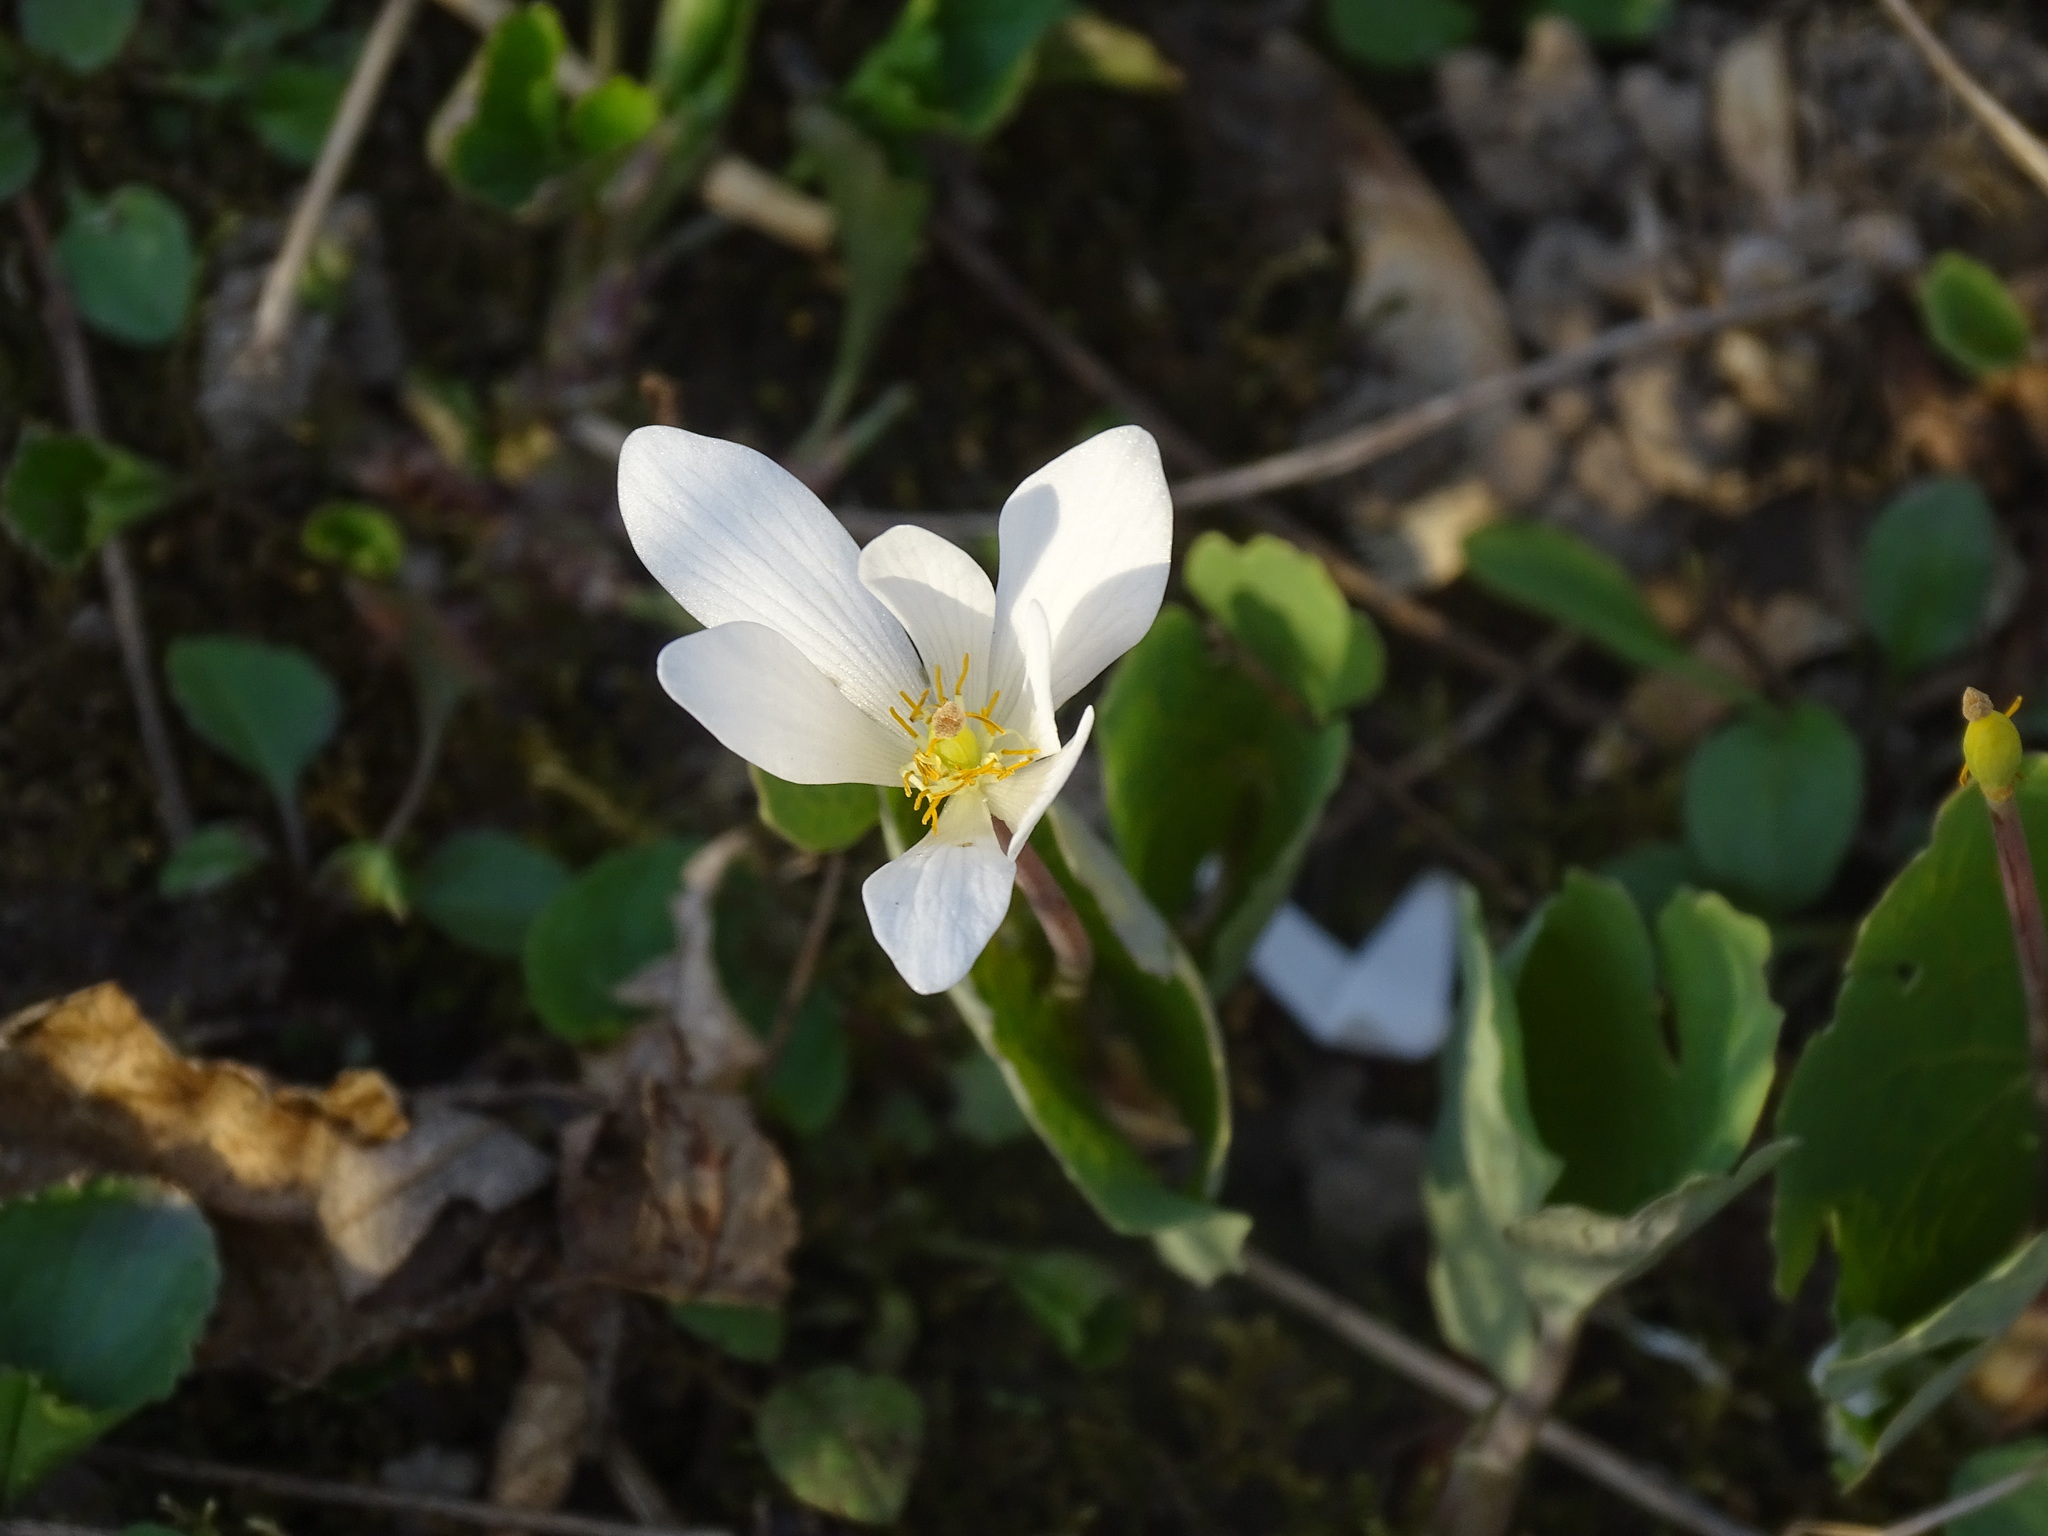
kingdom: Plantae
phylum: Tracheophyta
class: Magnoliopsida
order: Ranunculales
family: Papaveraceae
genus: Sanguinaria
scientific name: Sanguinaria canadensis
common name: Bloodroot
